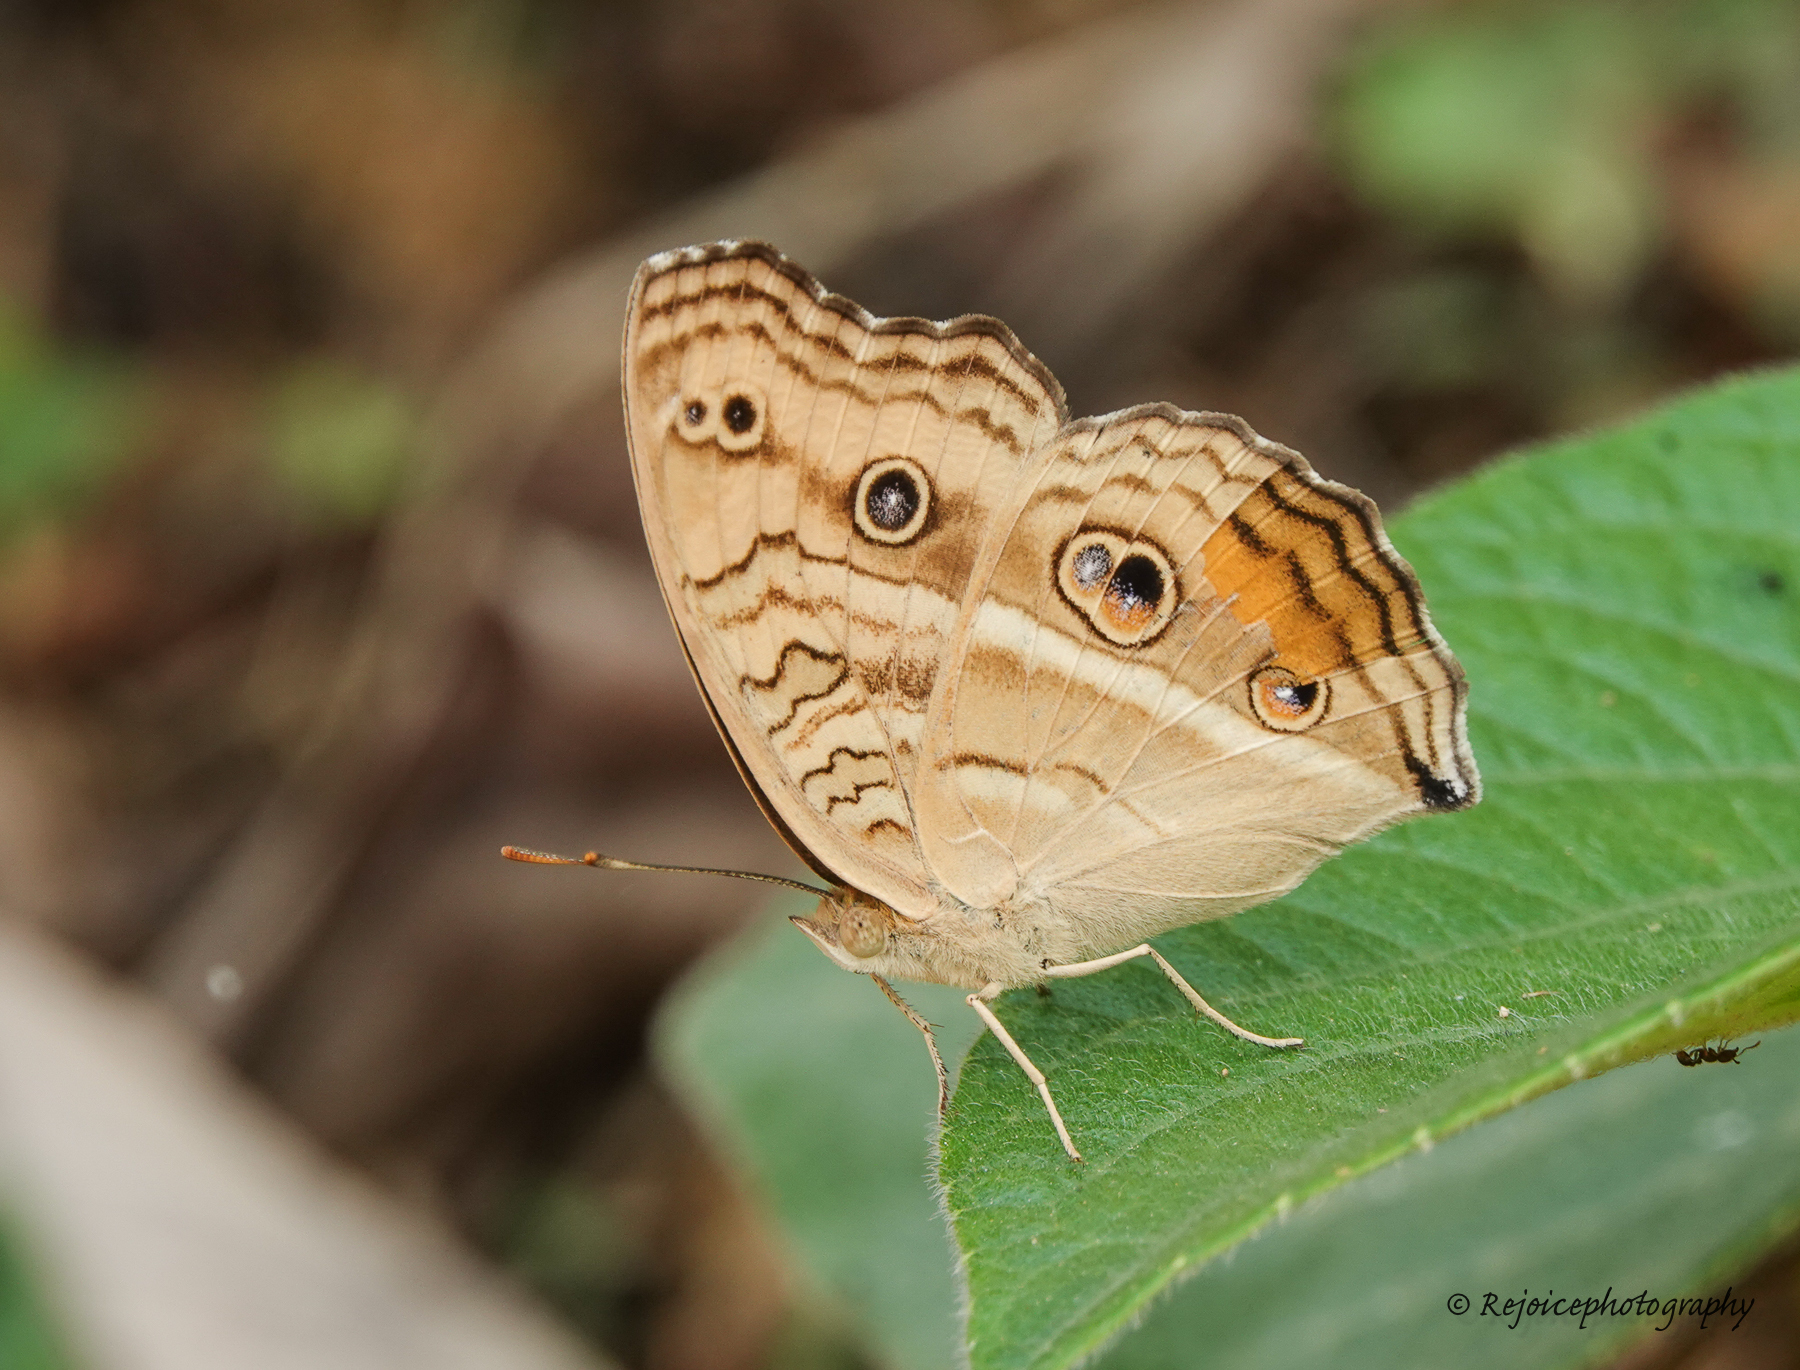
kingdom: Animalia
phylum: Arthropoda
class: Insecta
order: Lepidoptera
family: Nymphalidae
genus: Junonia
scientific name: Junonia almana
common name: Peacock pansy
